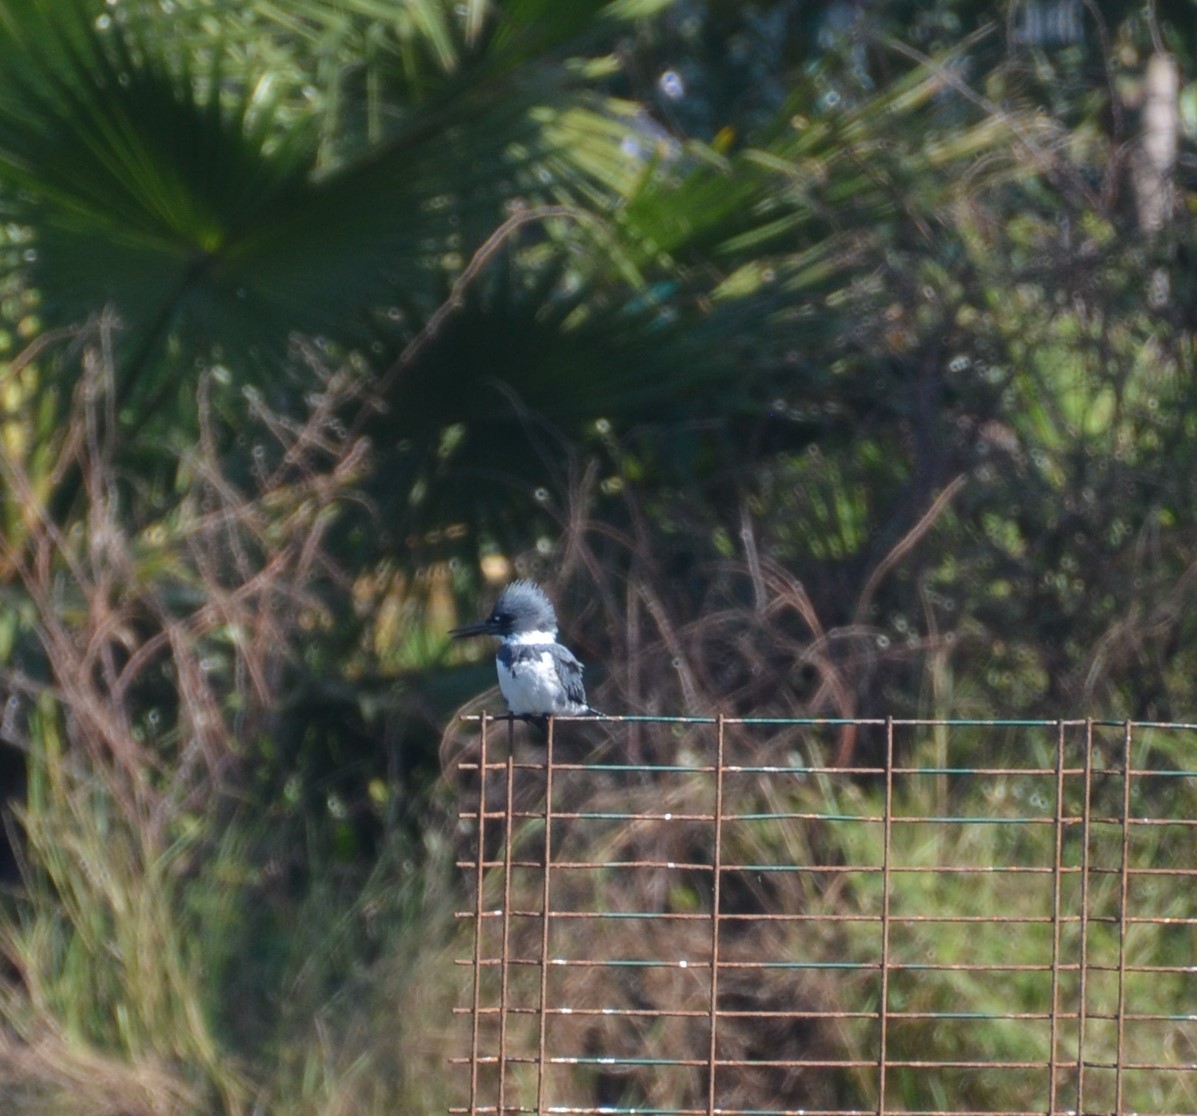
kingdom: Animalia
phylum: Chordata
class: Aves
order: Coraciiformes
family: Alcedinidae
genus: Megaceryle
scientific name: Megaceryle alcyon
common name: Belted kingfisher
